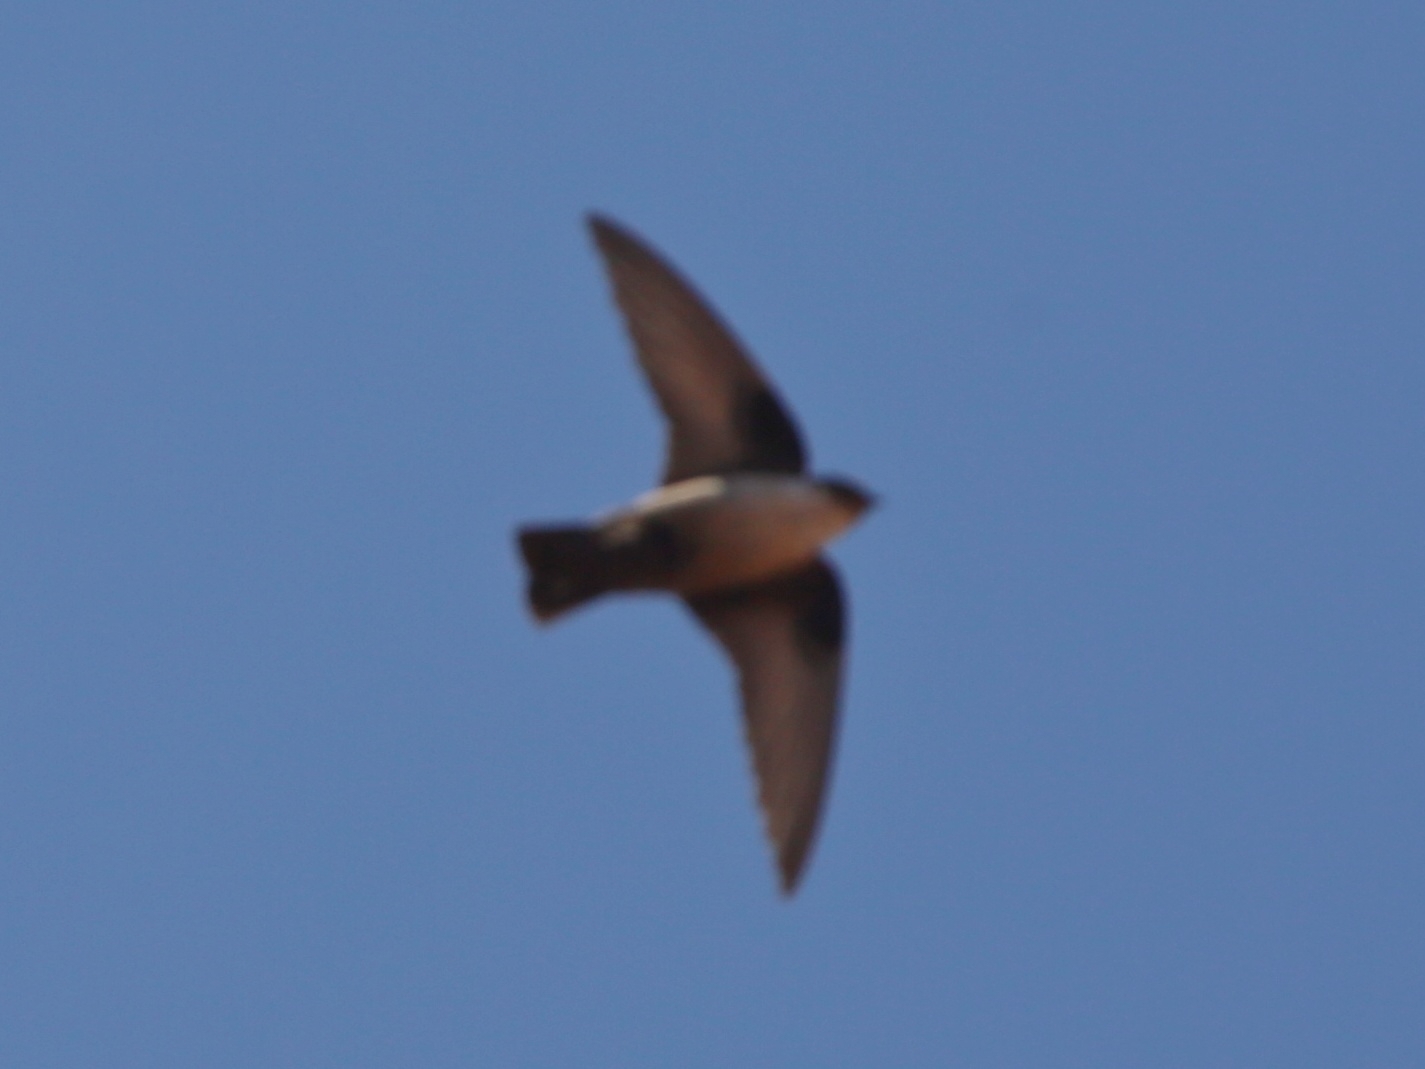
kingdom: Animalia
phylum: Chordata
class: Aves
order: Passeriformes
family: Hirundinidae
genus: Ptyonoprogne
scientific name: Ptyonoprogne rupestris
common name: Eurasian crag martin
